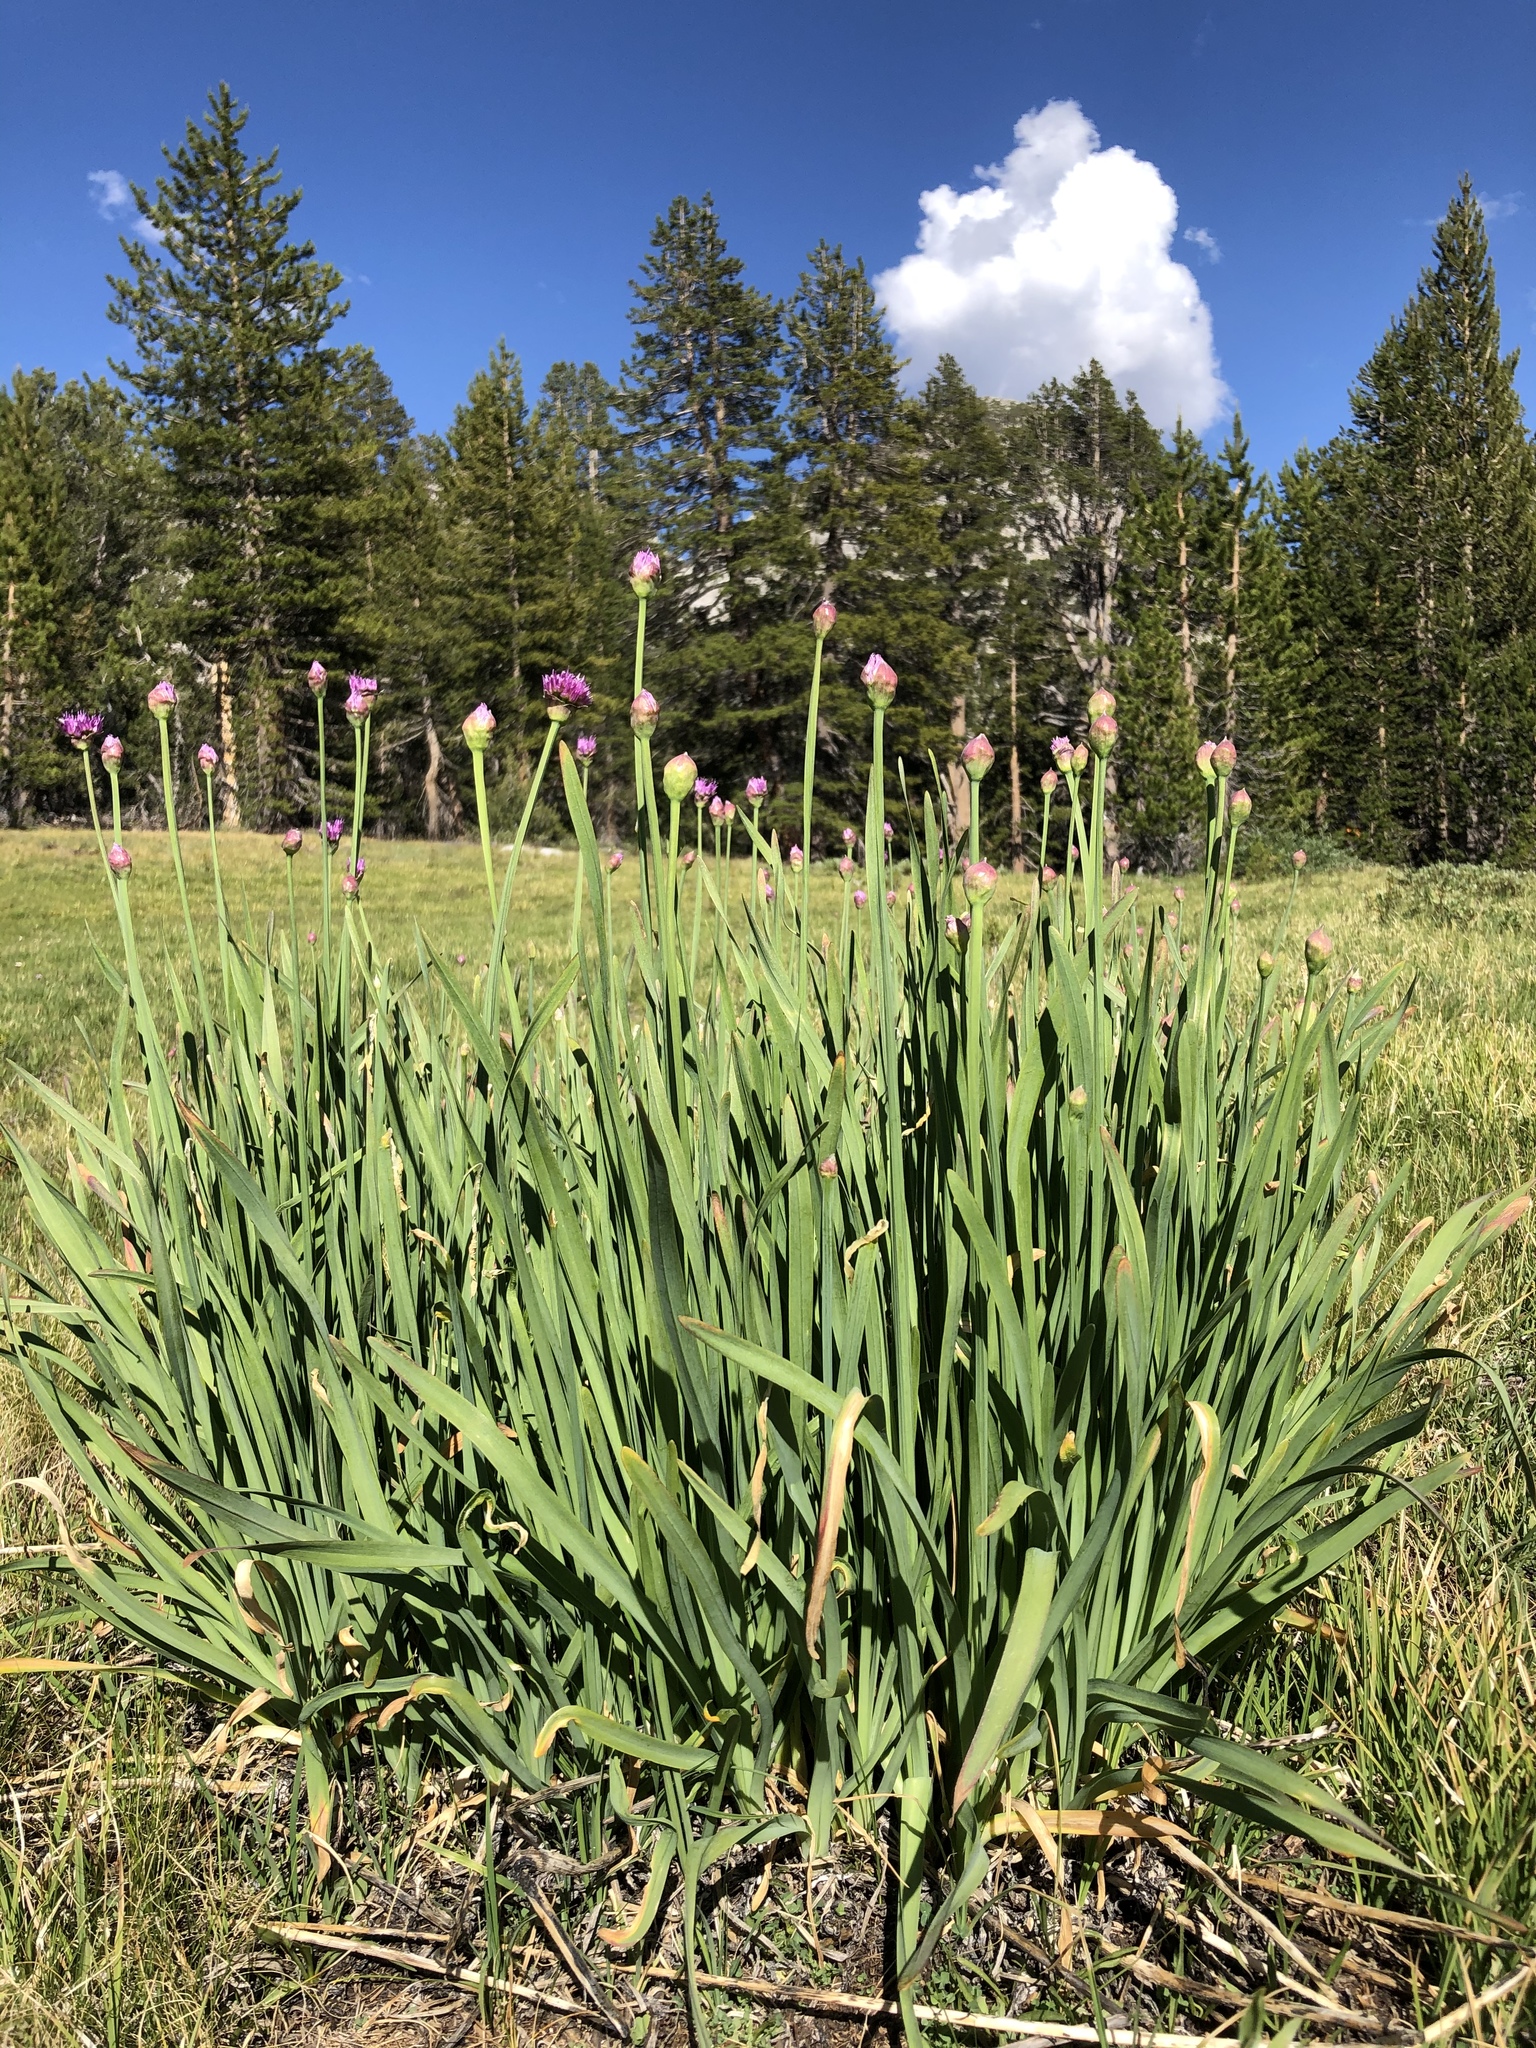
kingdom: Plantae
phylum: Tracheophyta
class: Liliopsida
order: Asparagales
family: Amaryllidaceae
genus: Allium
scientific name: Allium validum
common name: Pacific mountain onion
